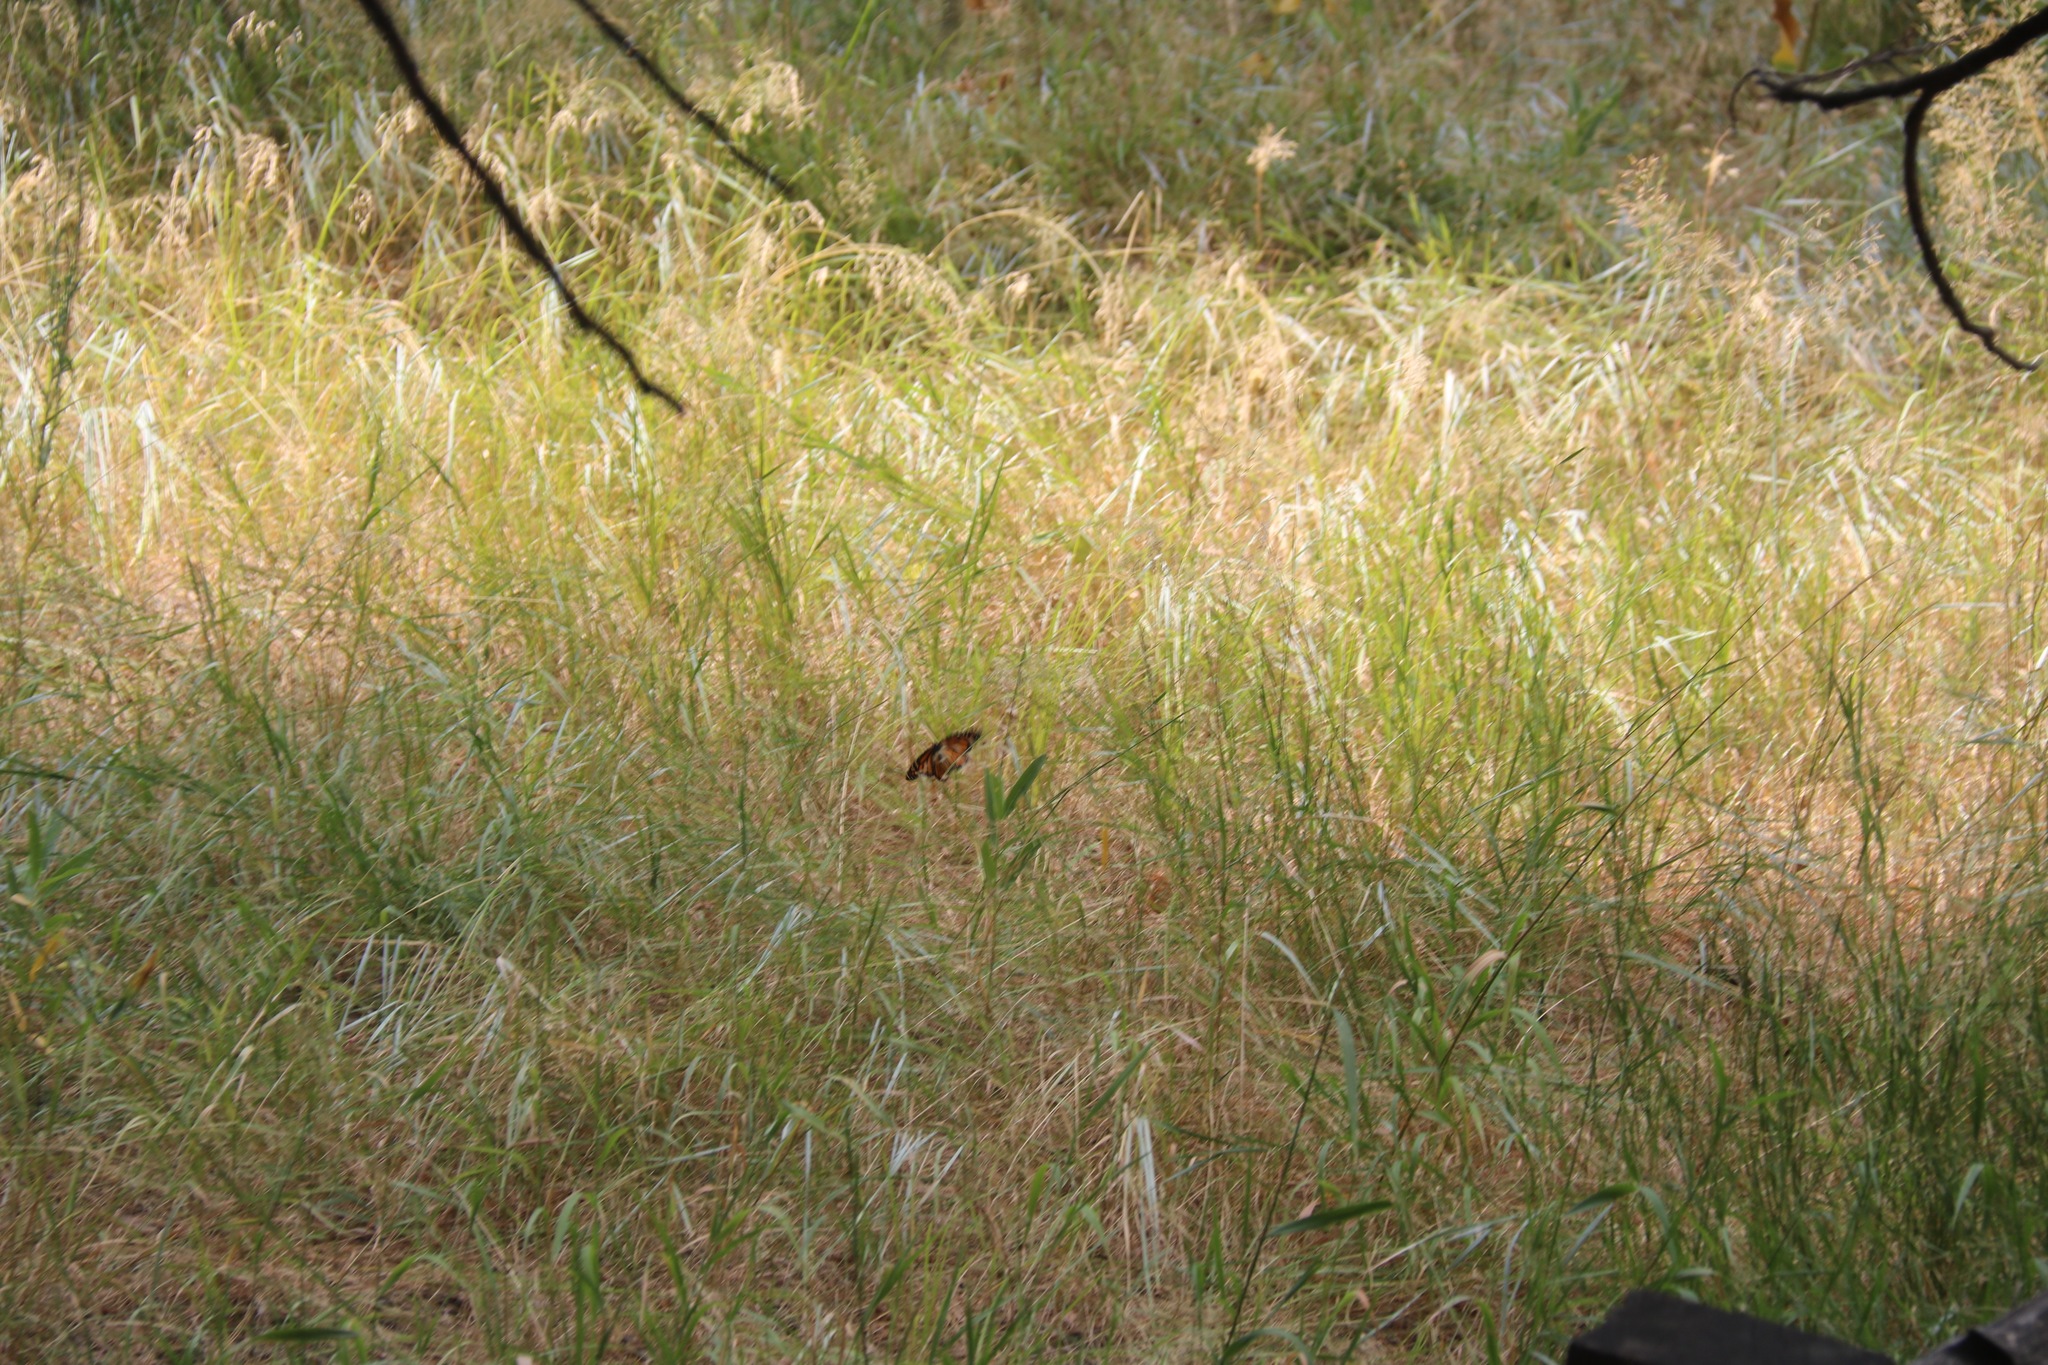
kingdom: Animalia
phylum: Arthropoda
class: Insecta
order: Lepidoptera
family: Nymphalidae
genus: Danaus
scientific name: Danaus plexippus
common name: Monarch
